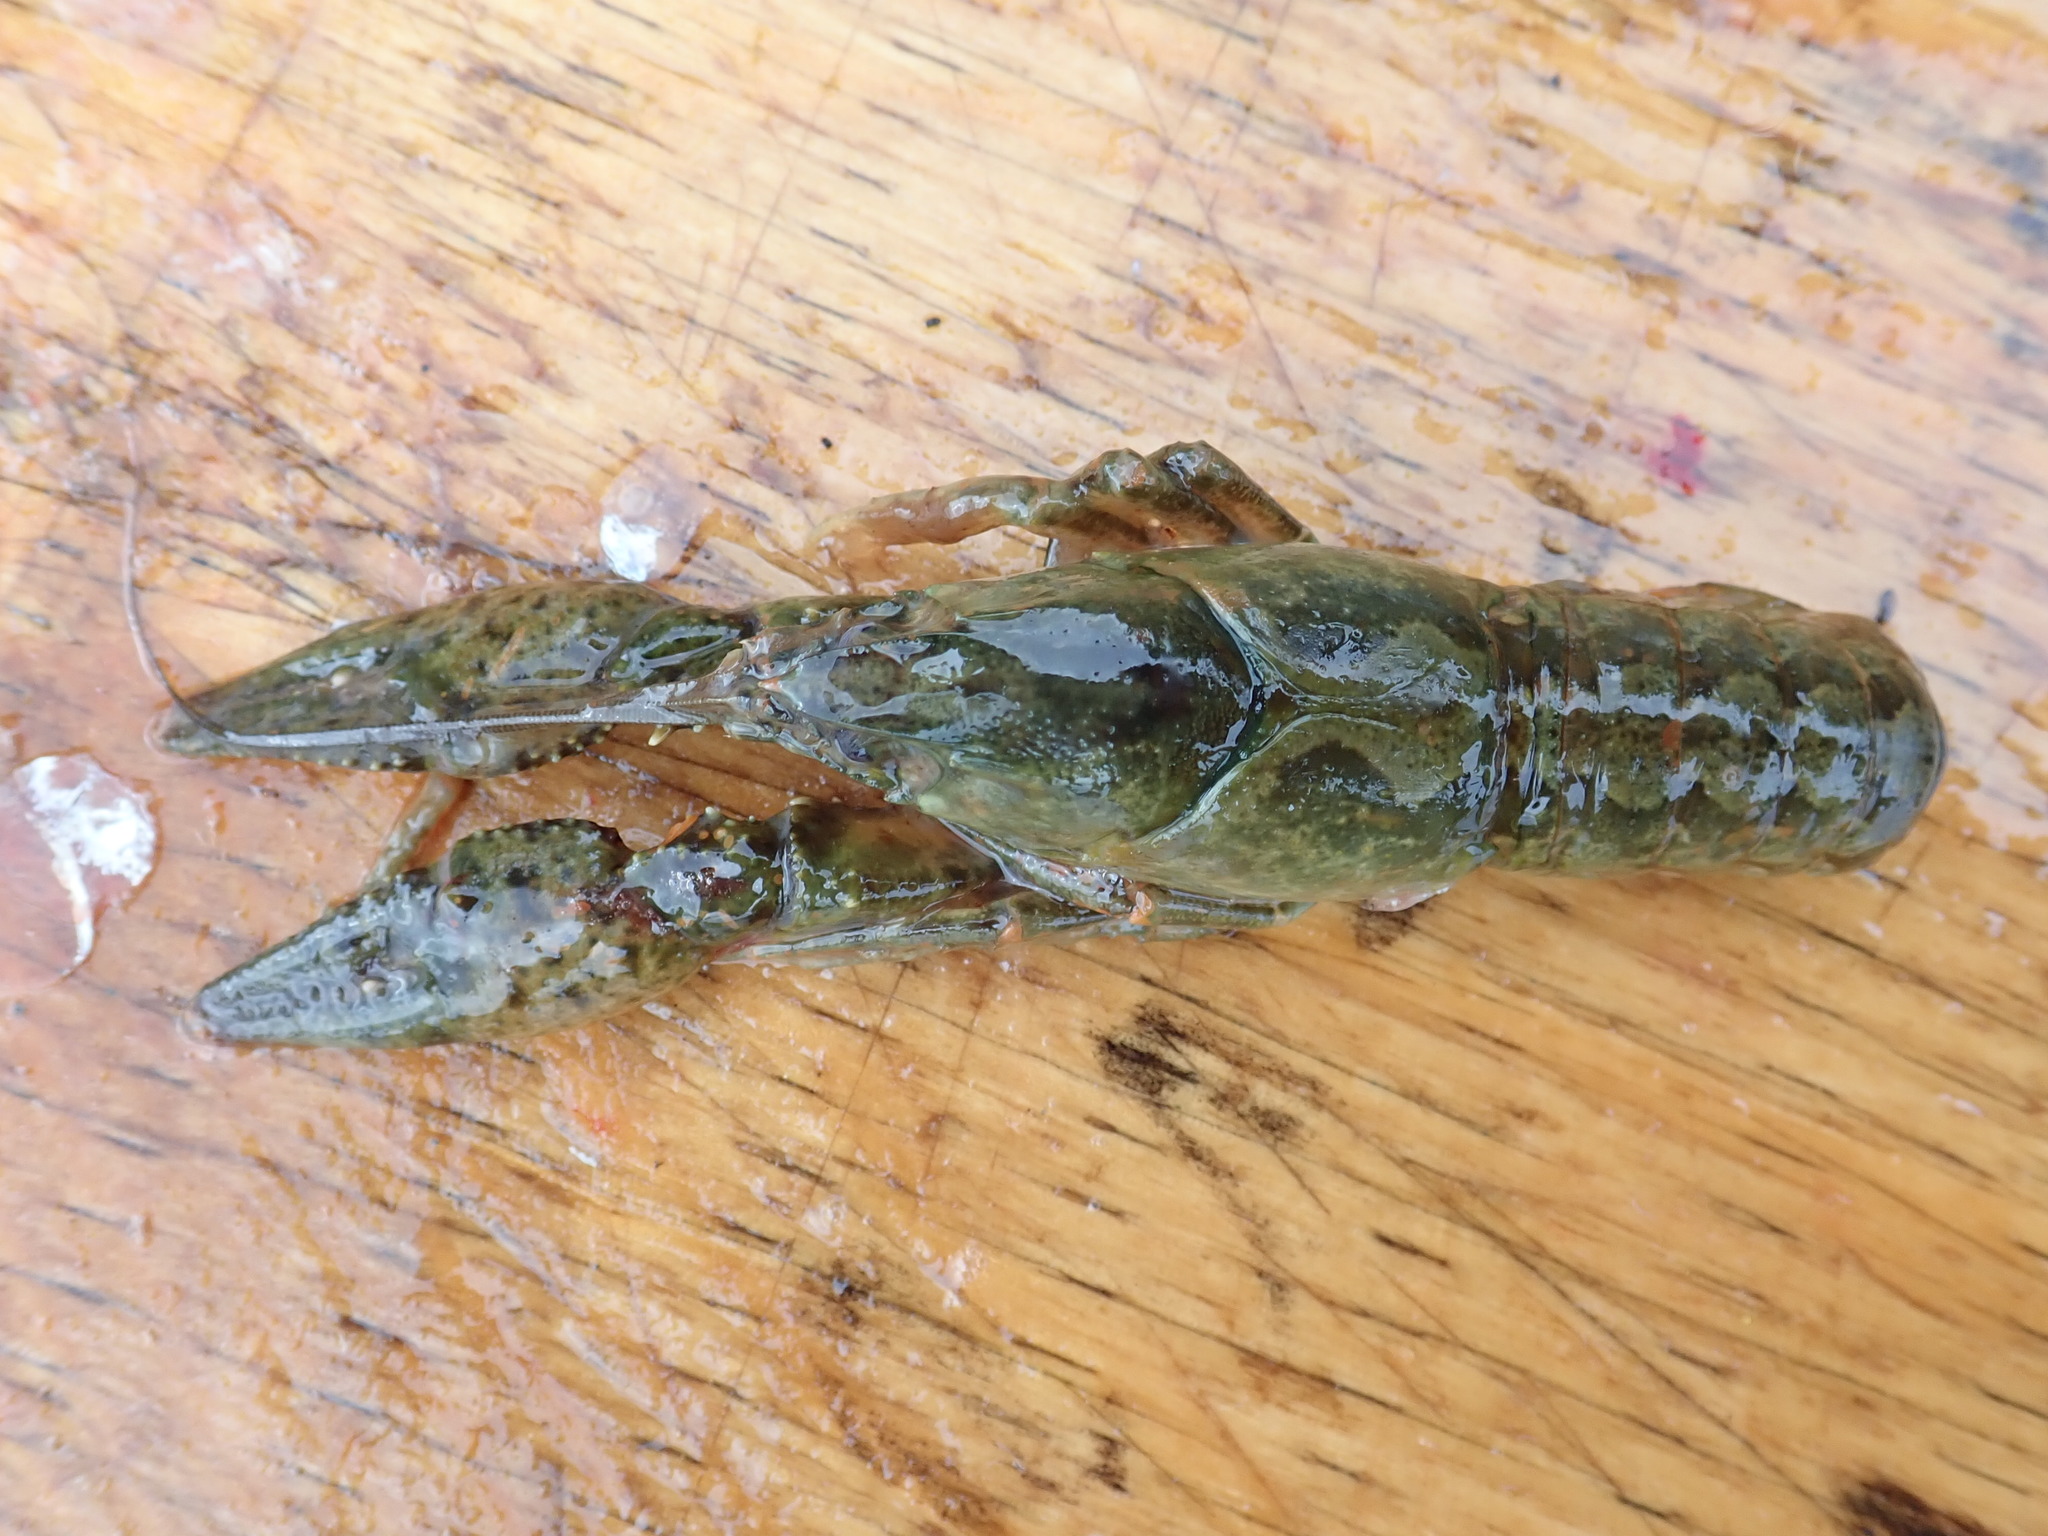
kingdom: Animalia
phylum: Arthropoda
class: Malacostraca
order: Decapoda
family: Cambaridae
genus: Faxonius
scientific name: Faxonius immunis
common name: Calico crayfish
